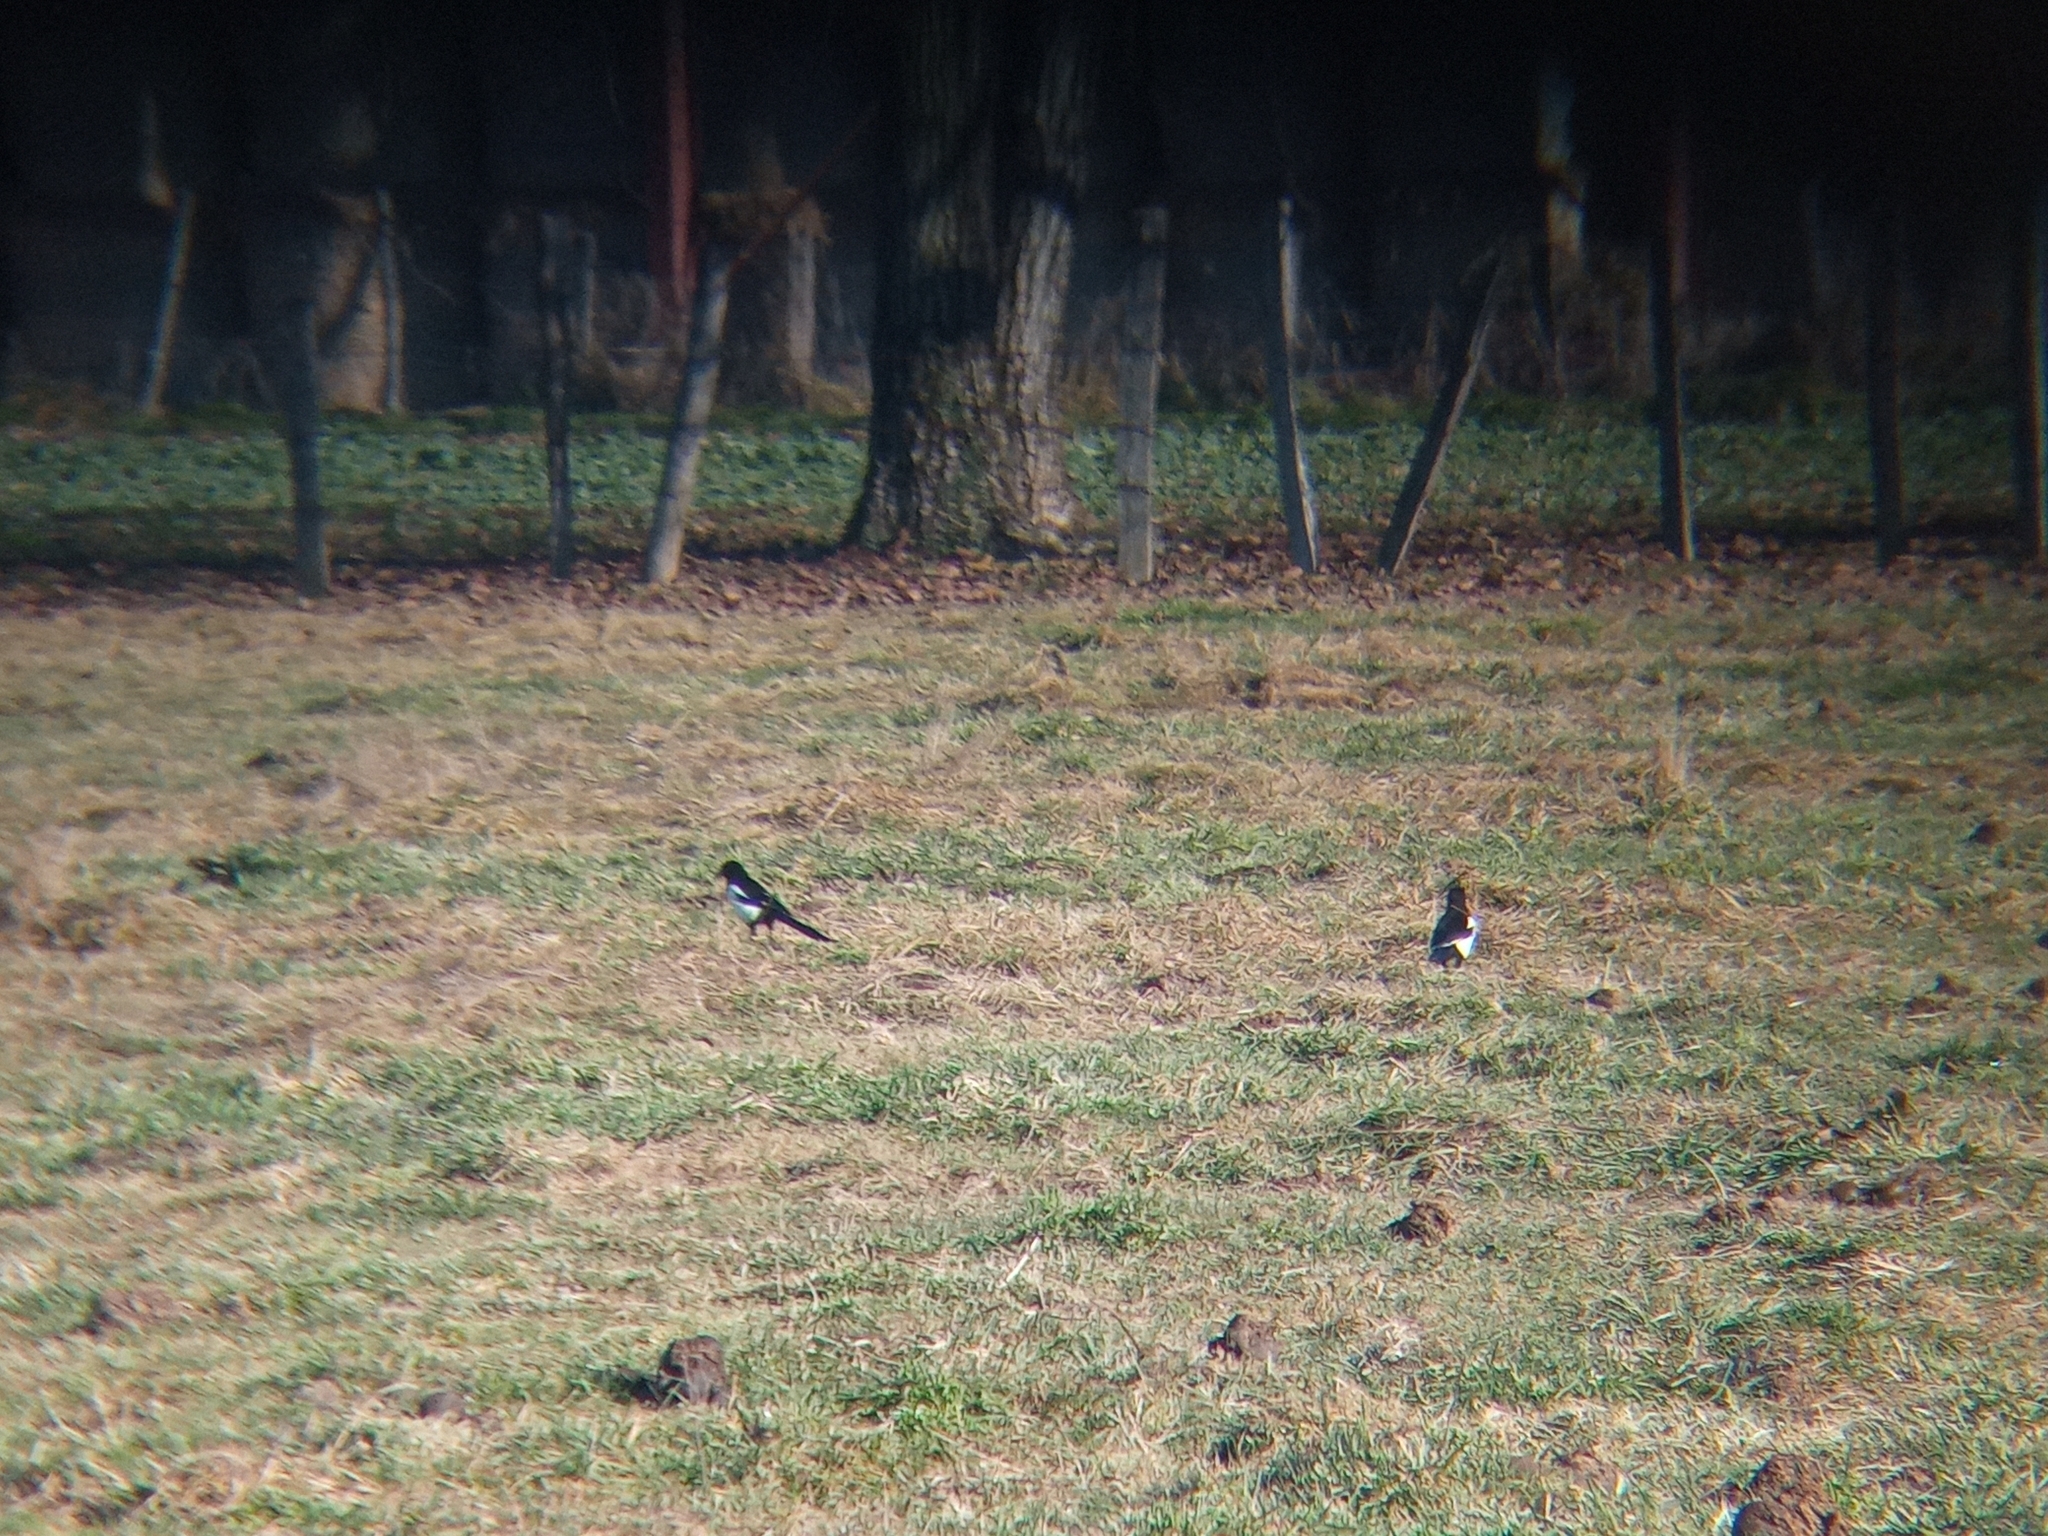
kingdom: Animalia
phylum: Chordata
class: Aves
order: Passeriformes
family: Corvidae
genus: Pica
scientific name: Pica pica
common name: Eurasian magpie
